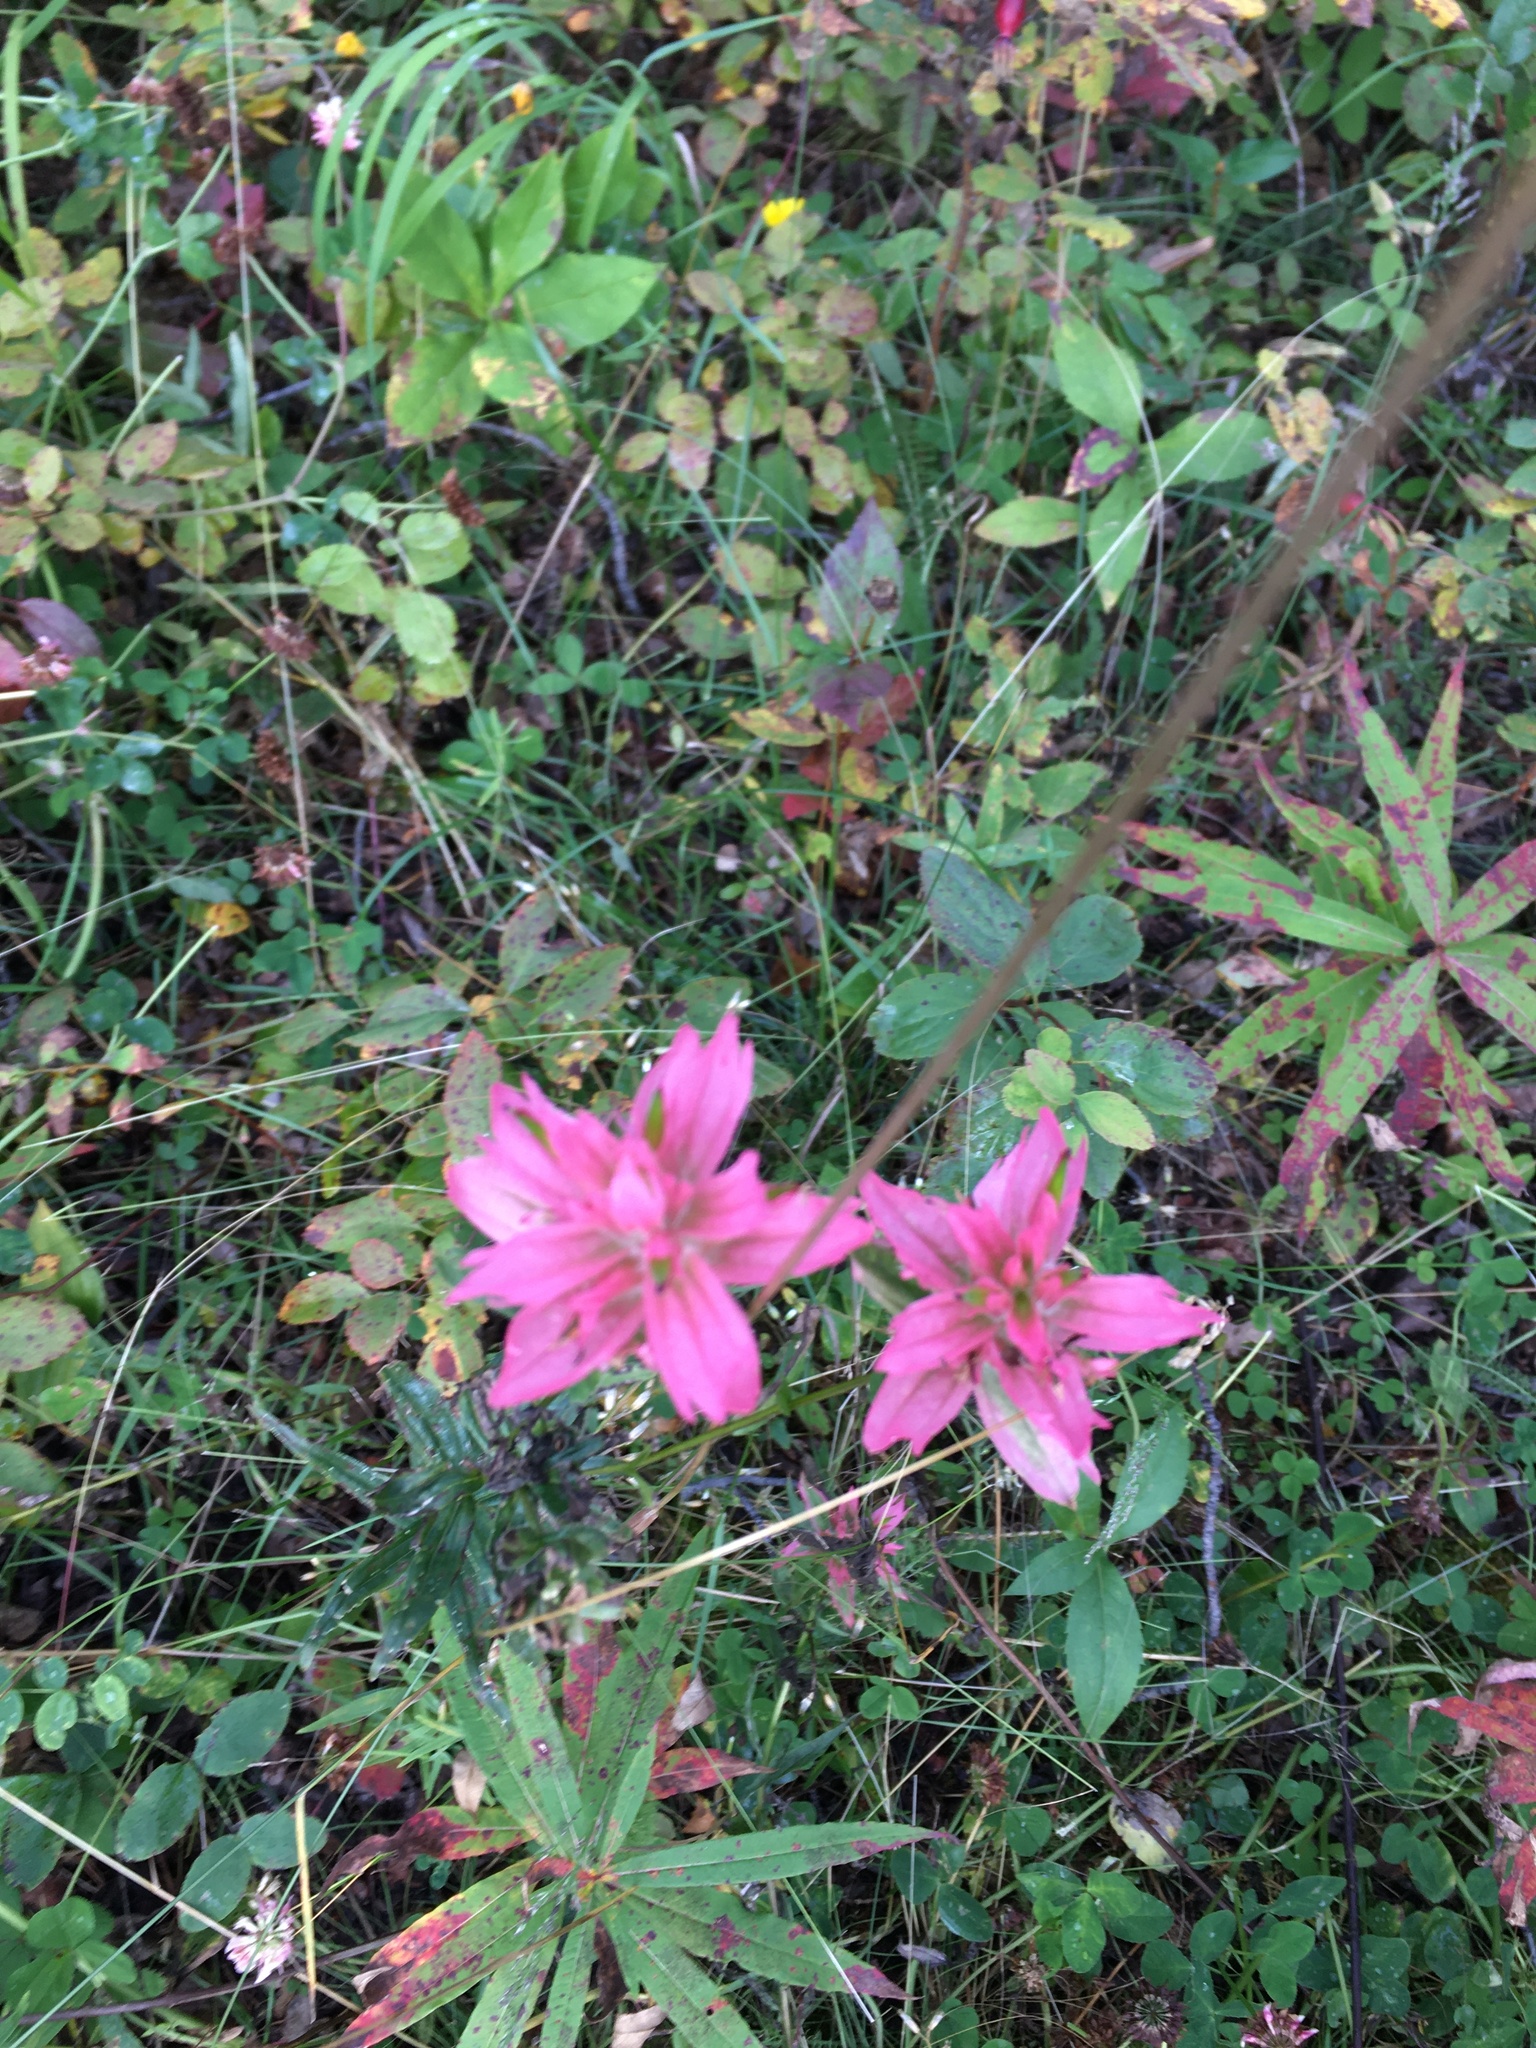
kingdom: Plantae
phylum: Tracheophyta
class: Magnoliopsida
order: Lamiales
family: Orobanchaceae
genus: Castilleja
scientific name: Castilleja miniata
